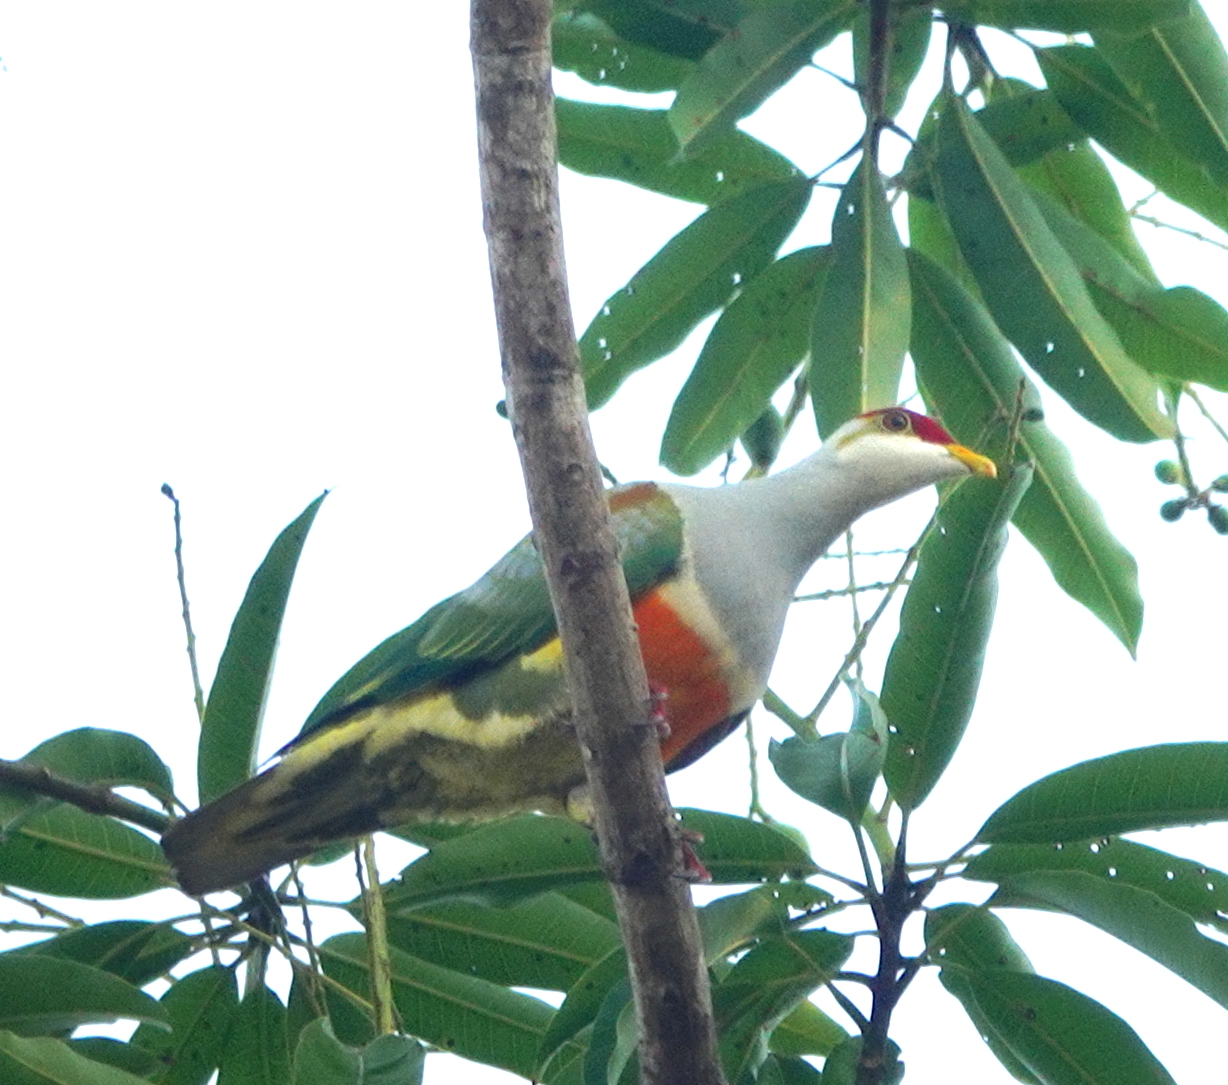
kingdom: Animalia
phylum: Chordata
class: Aves
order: Columbiformes
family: Columbidae
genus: Ptilinopus
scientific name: Ptilinopus wallacii
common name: Wallace's fruit dove
